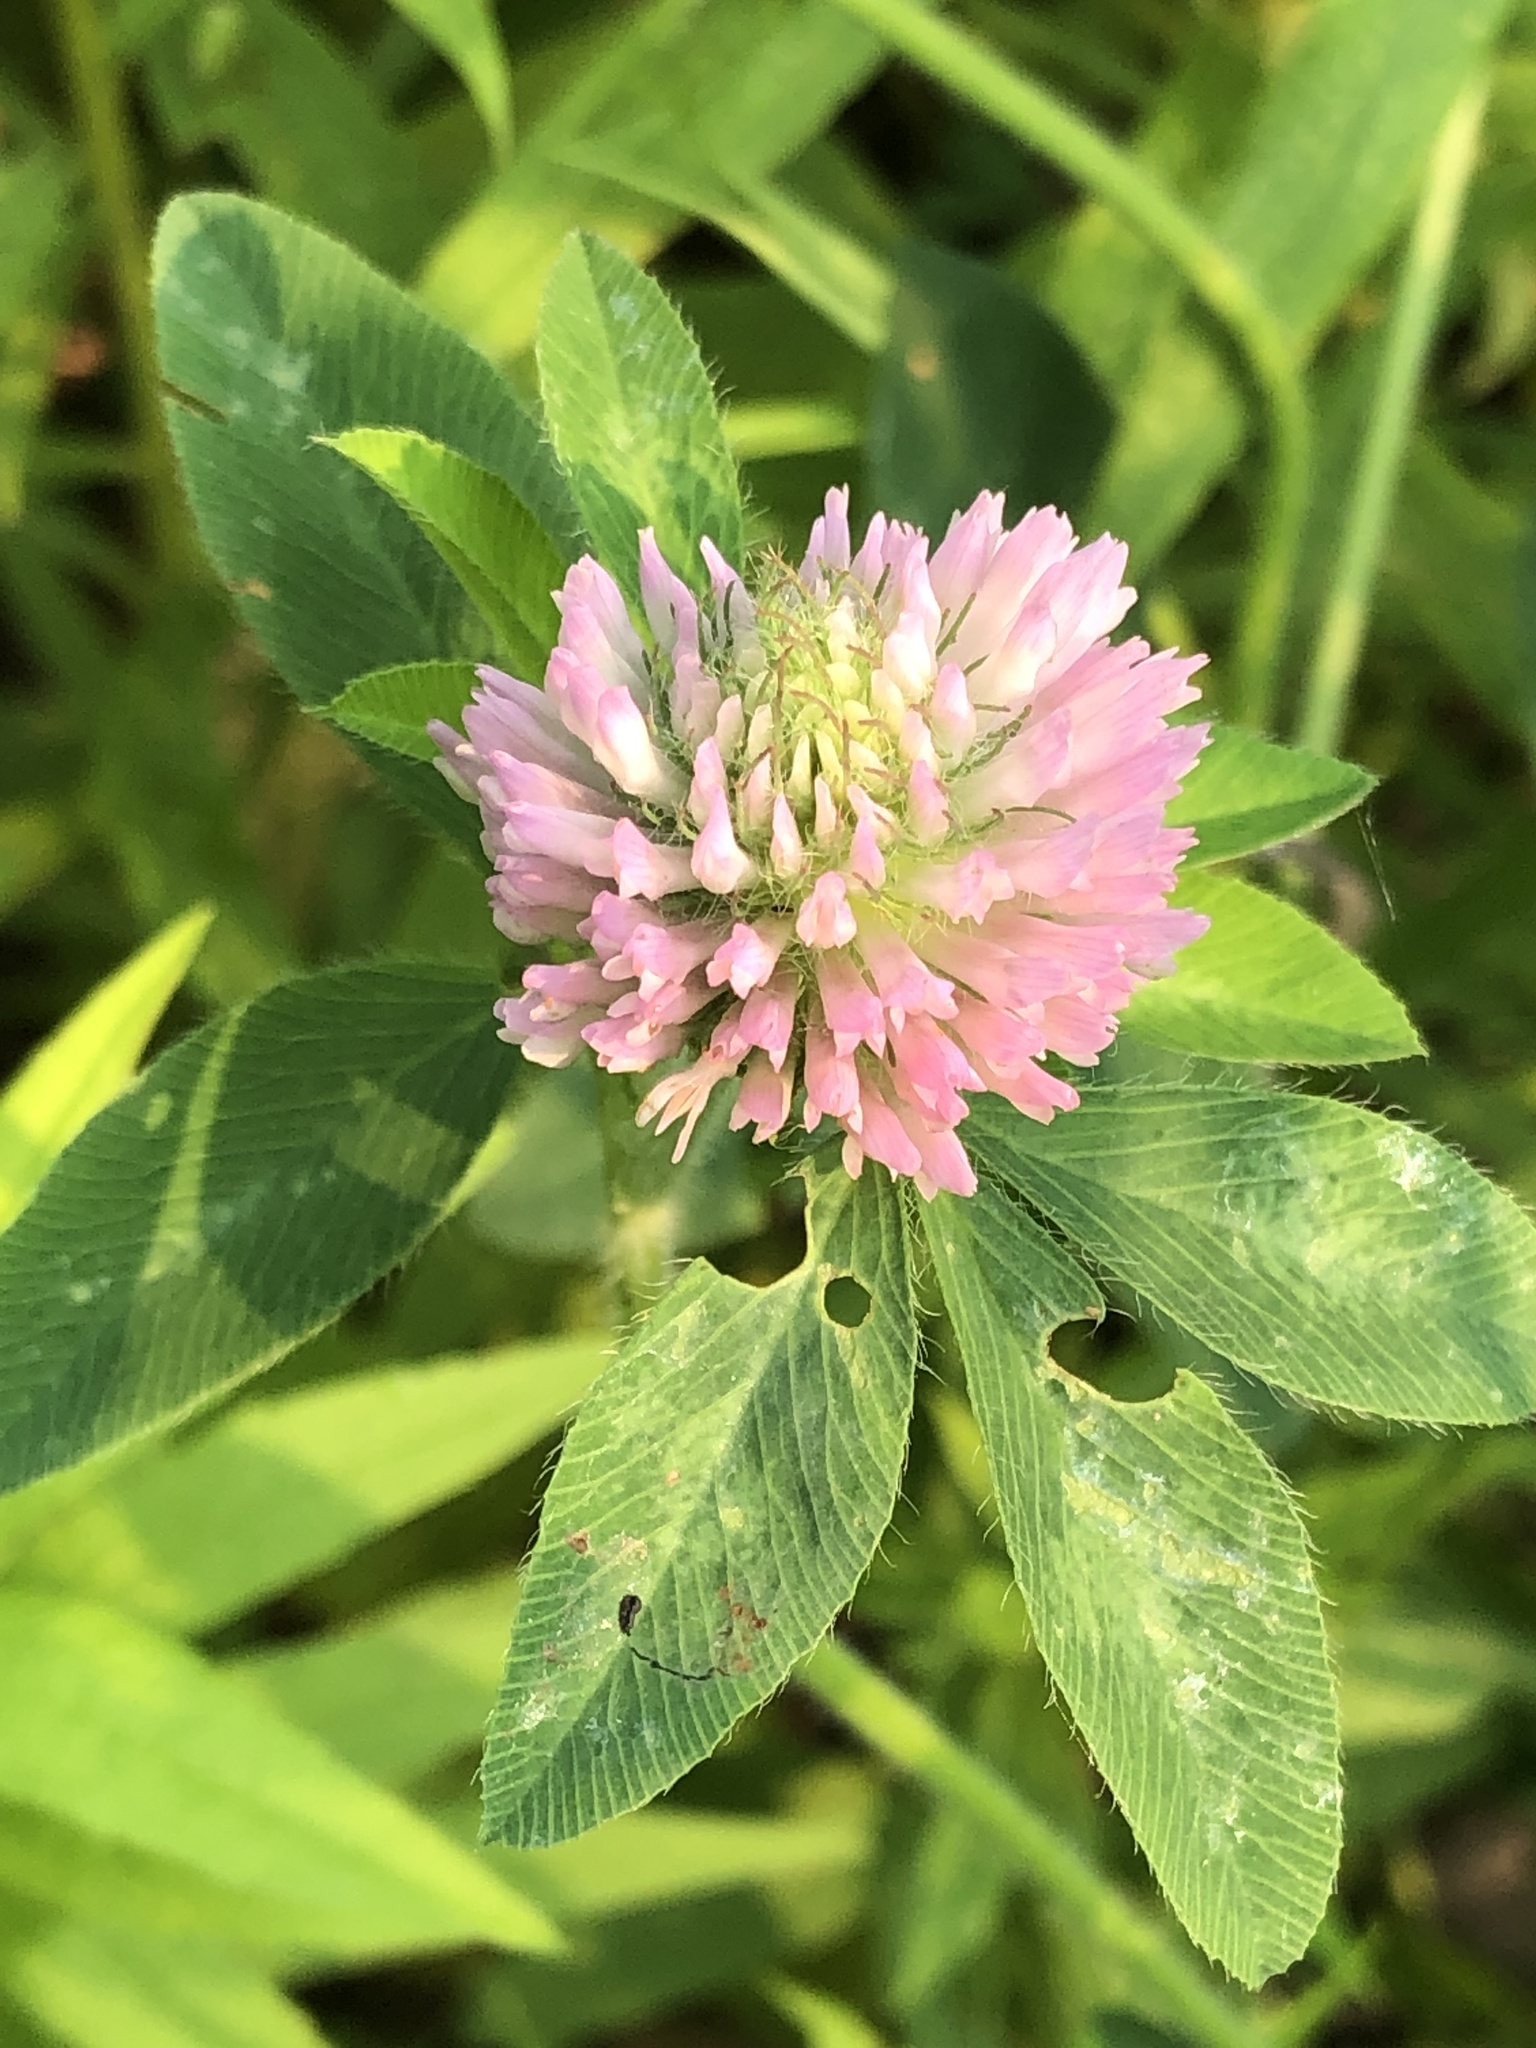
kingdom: Plantae
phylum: Tracheophyta
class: Magnoliopsida
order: Fabales
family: Fabaceae
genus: Trifolium
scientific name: Trifolium pratense
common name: Red clover
